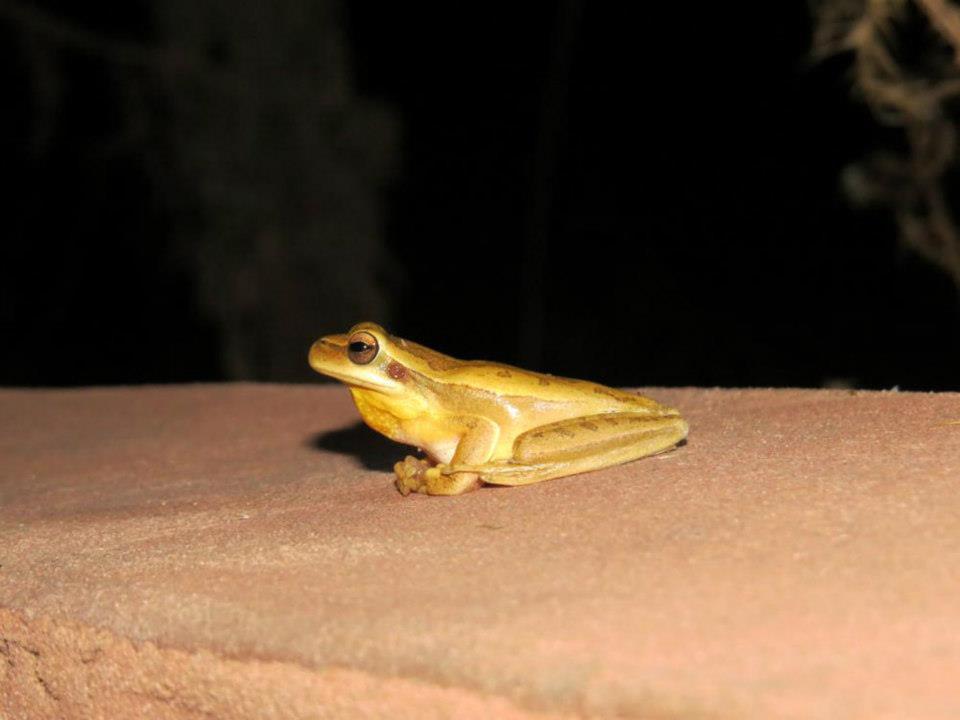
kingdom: Animalia
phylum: Chordata
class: Amphibia
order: Anura
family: Hylidae
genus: Boana
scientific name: Boana pulchella
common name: Montevideo treefrog
